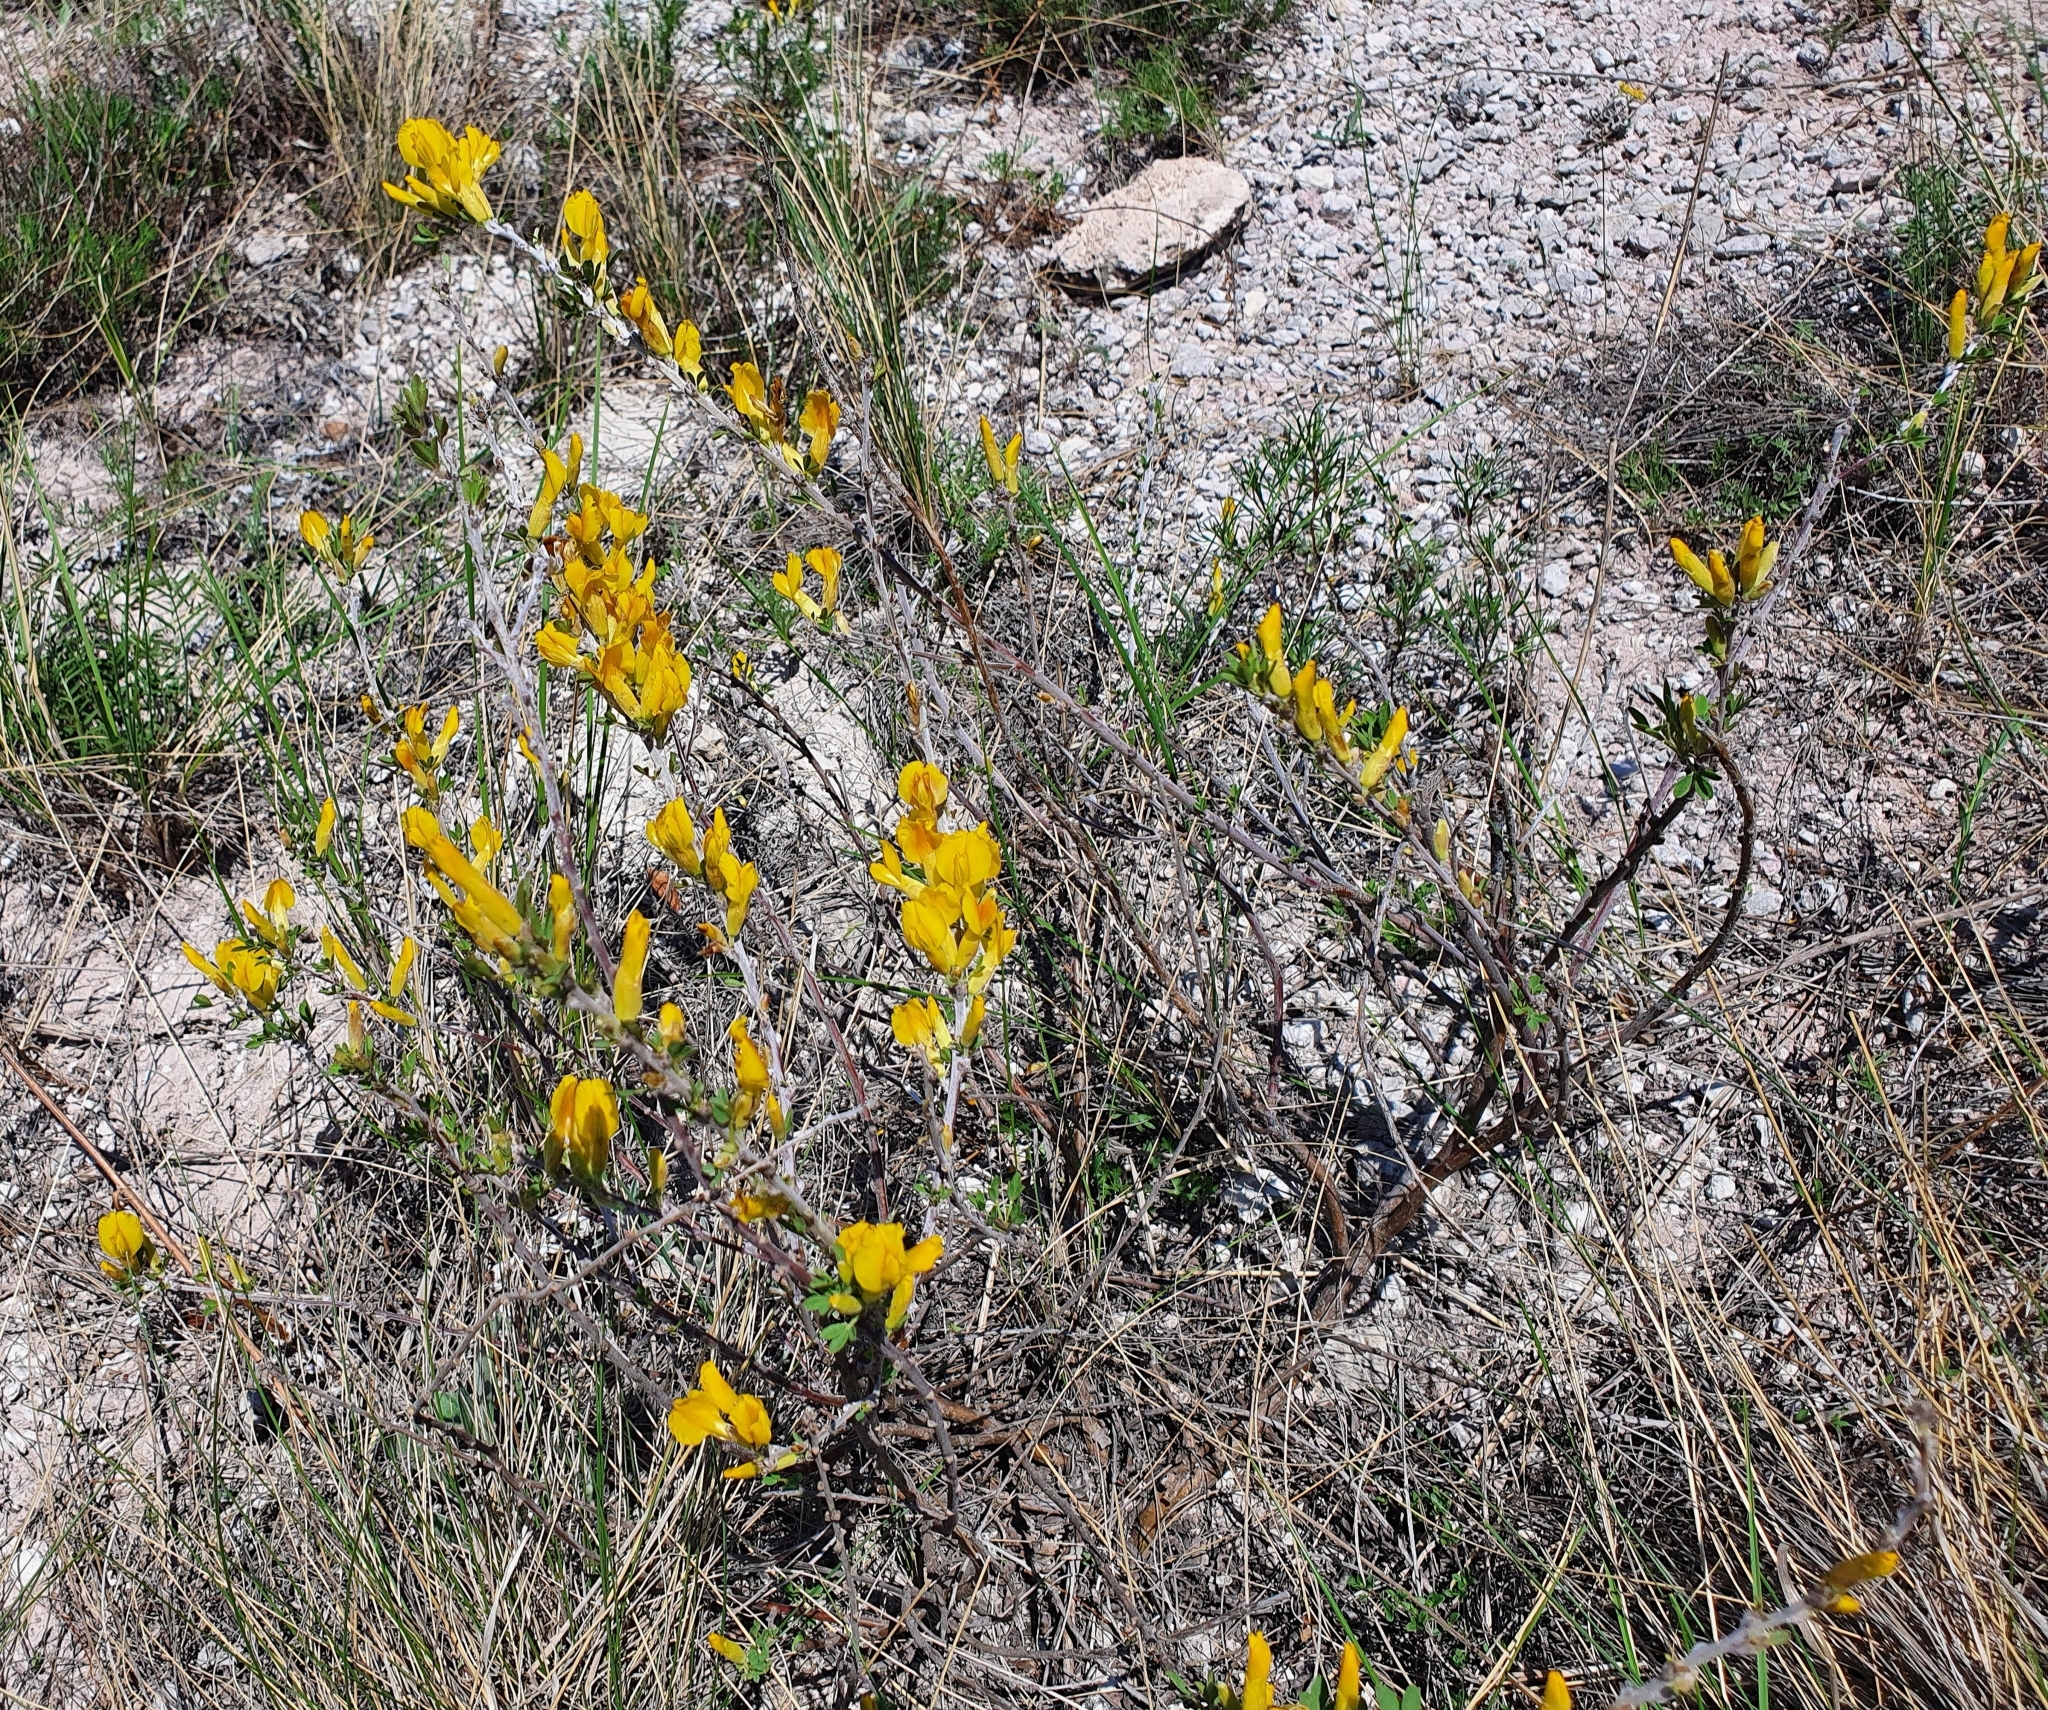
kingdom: Plantae
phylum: Tracheophyta
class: Magnoliopsida
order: Fabales
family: Fabaceae
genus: Chamaecytisus
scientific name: Chamaecytisus ruthenicus
